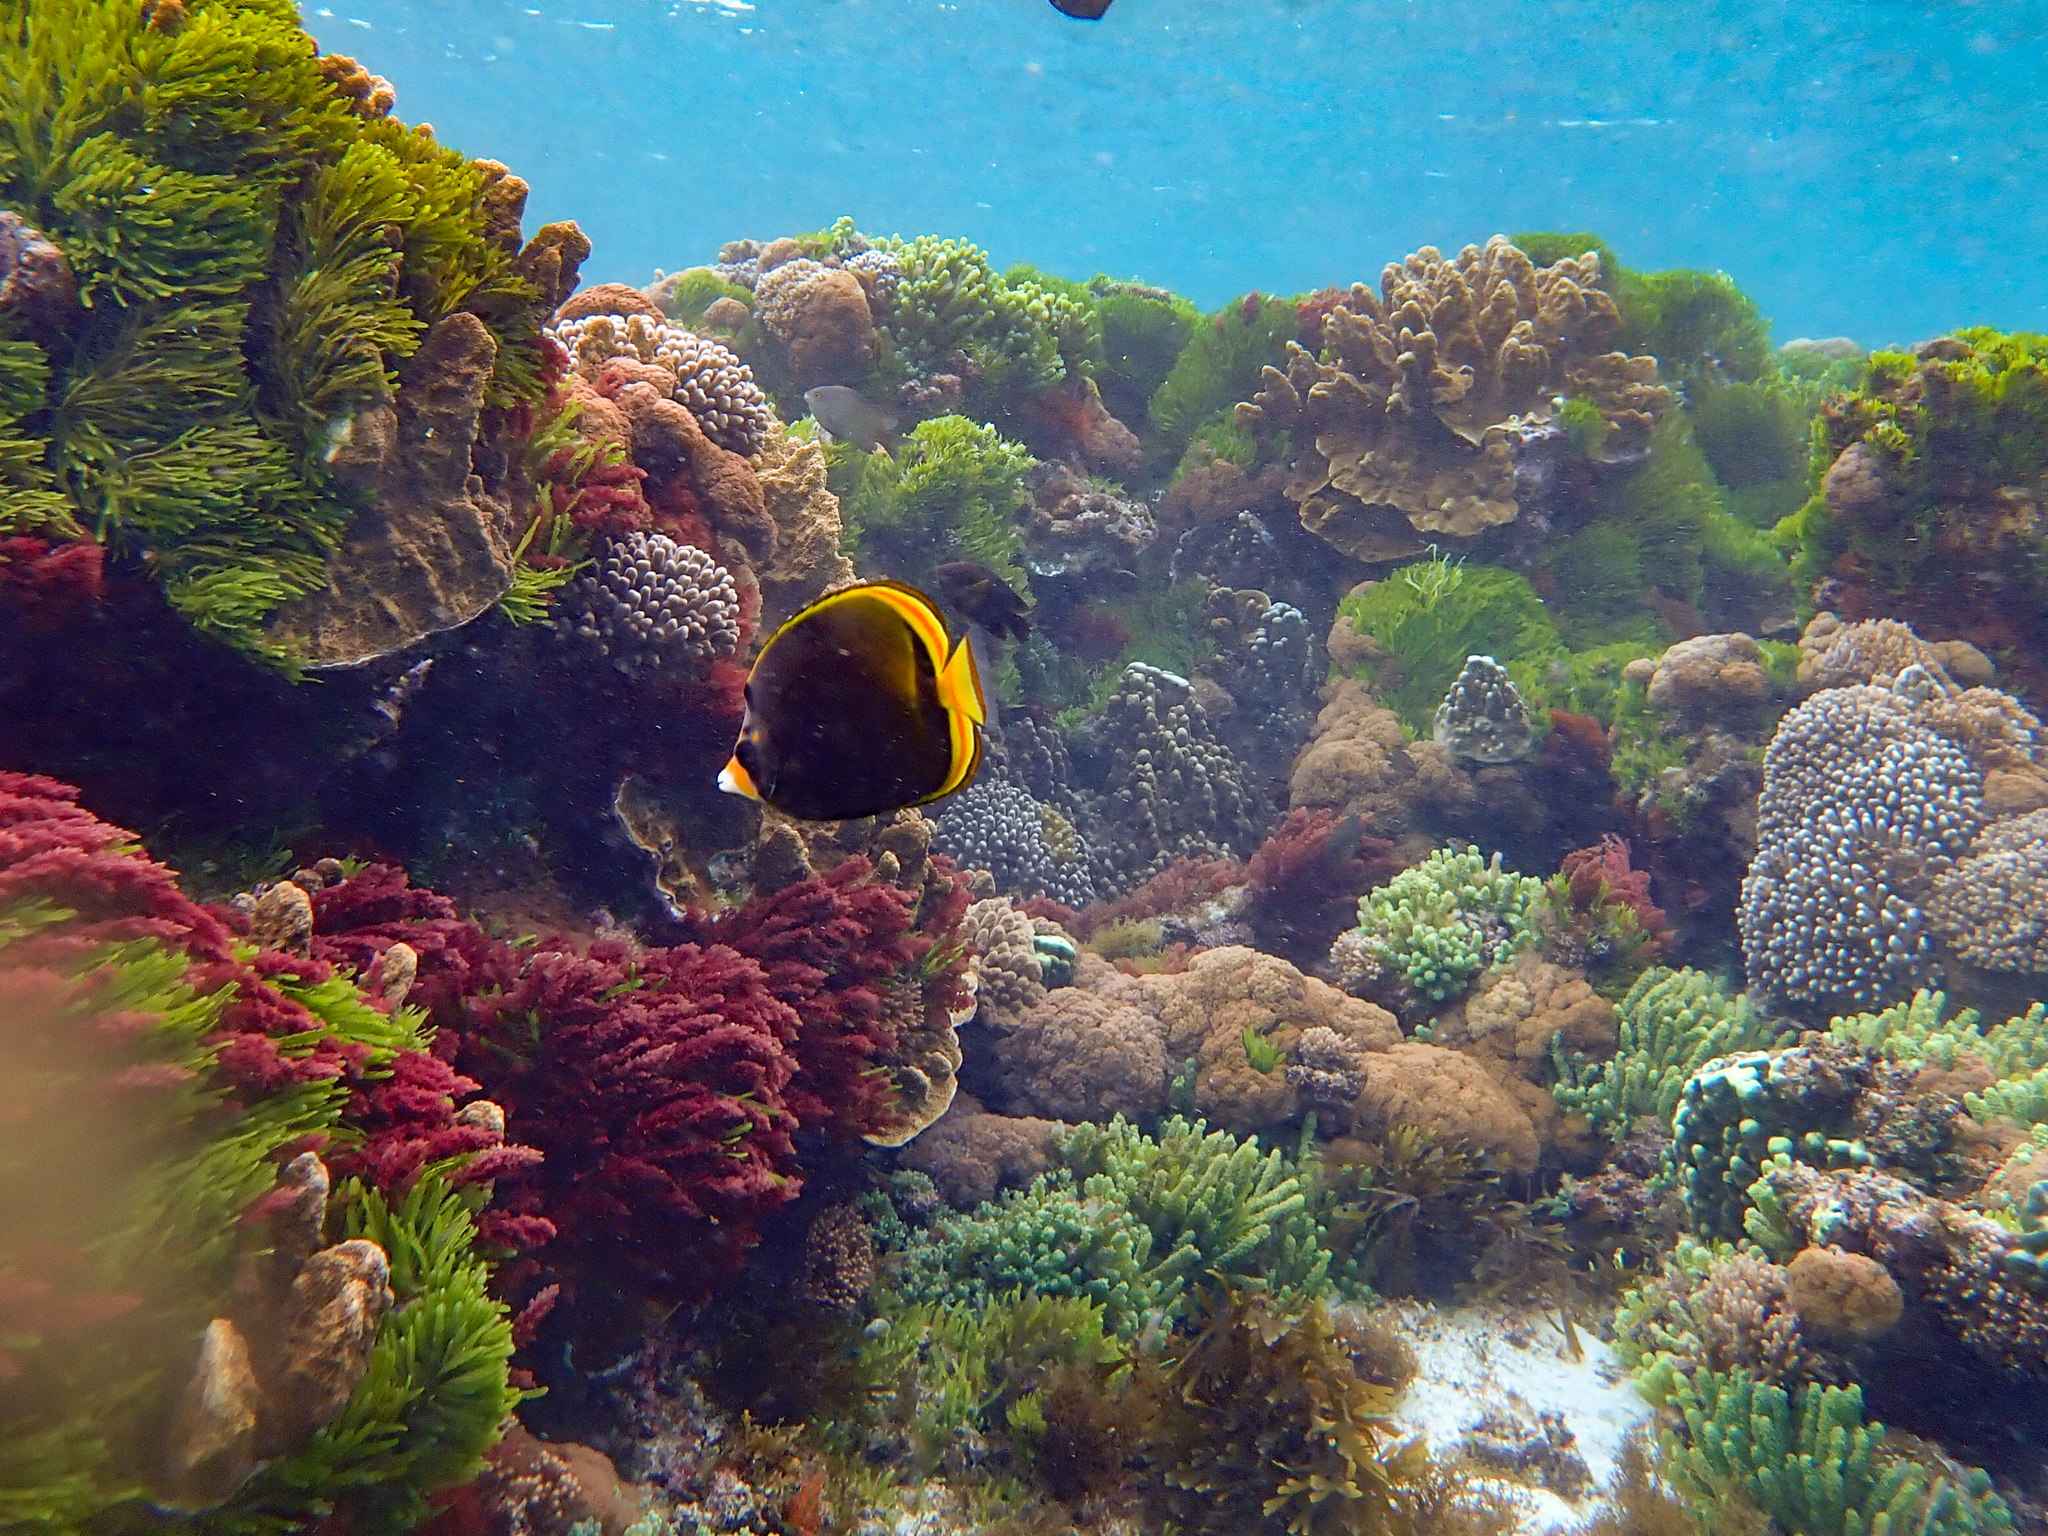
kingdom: Animalia
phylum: Chordata
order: Perciformes
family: Chaetodontidae
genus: Chaetodon
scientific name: Chaetodon flavirostris
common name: Black butterflyfish
